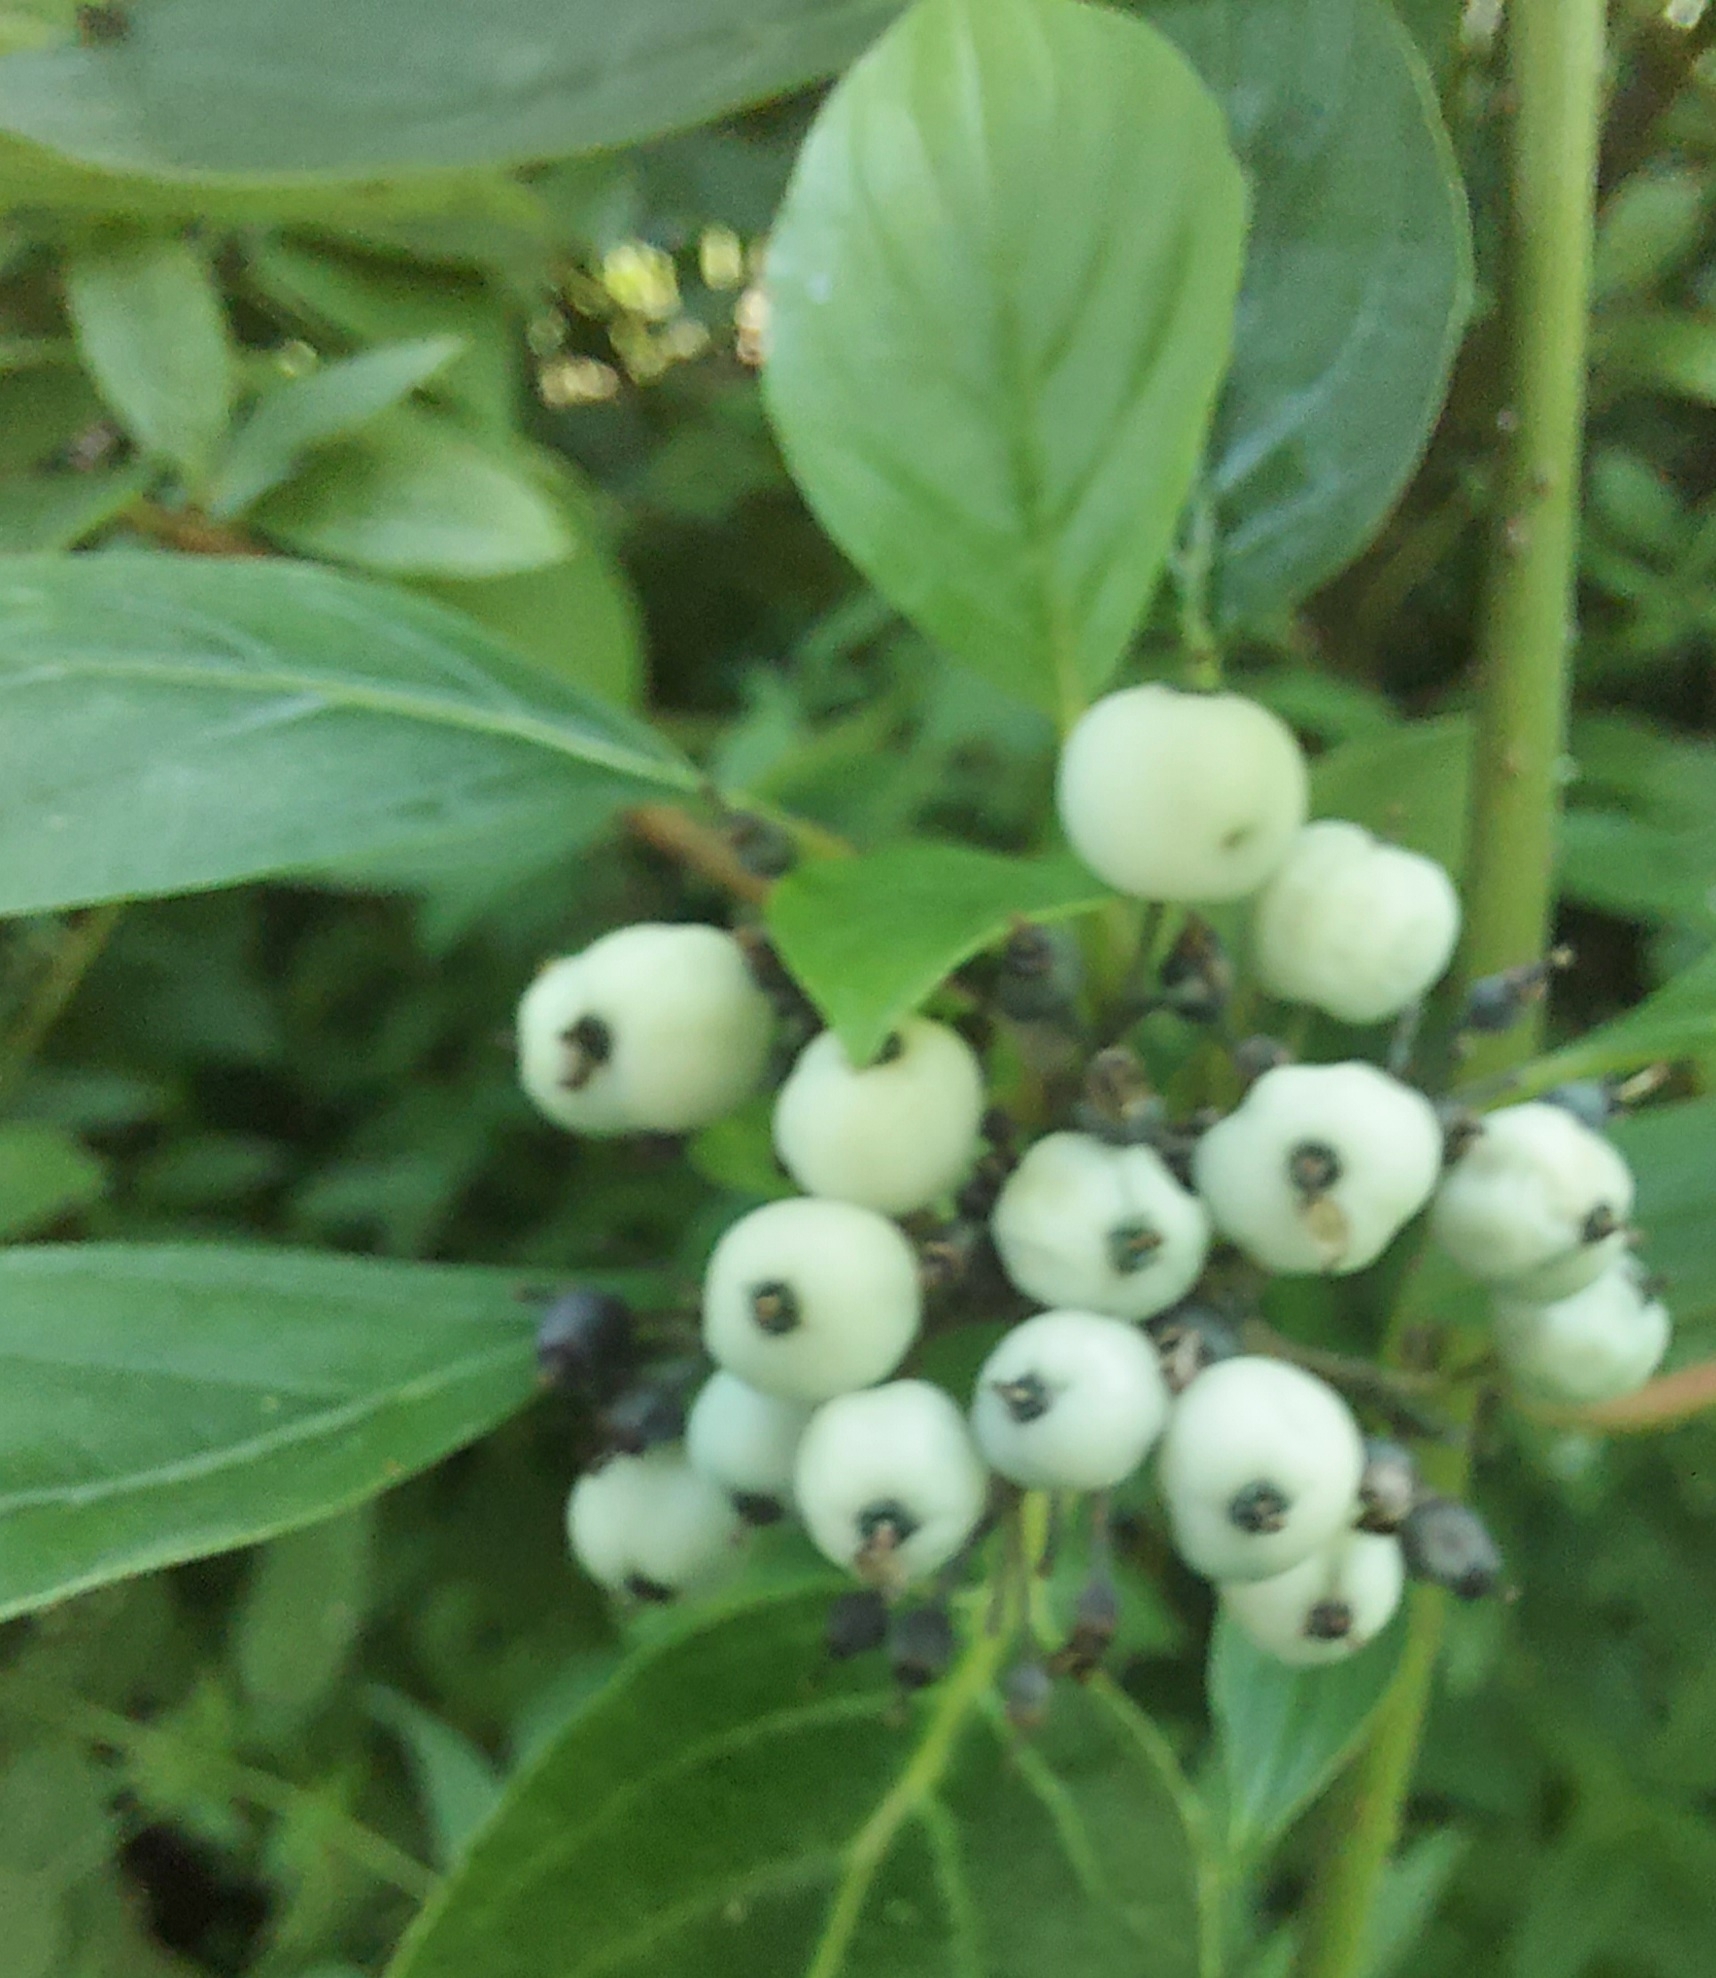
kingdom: Plantae
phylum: Tracheophyta
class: Magnoliopsida
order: Cornales
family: Cornaceae
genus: Cornus
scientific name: Cornus alba
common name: White dogwood
